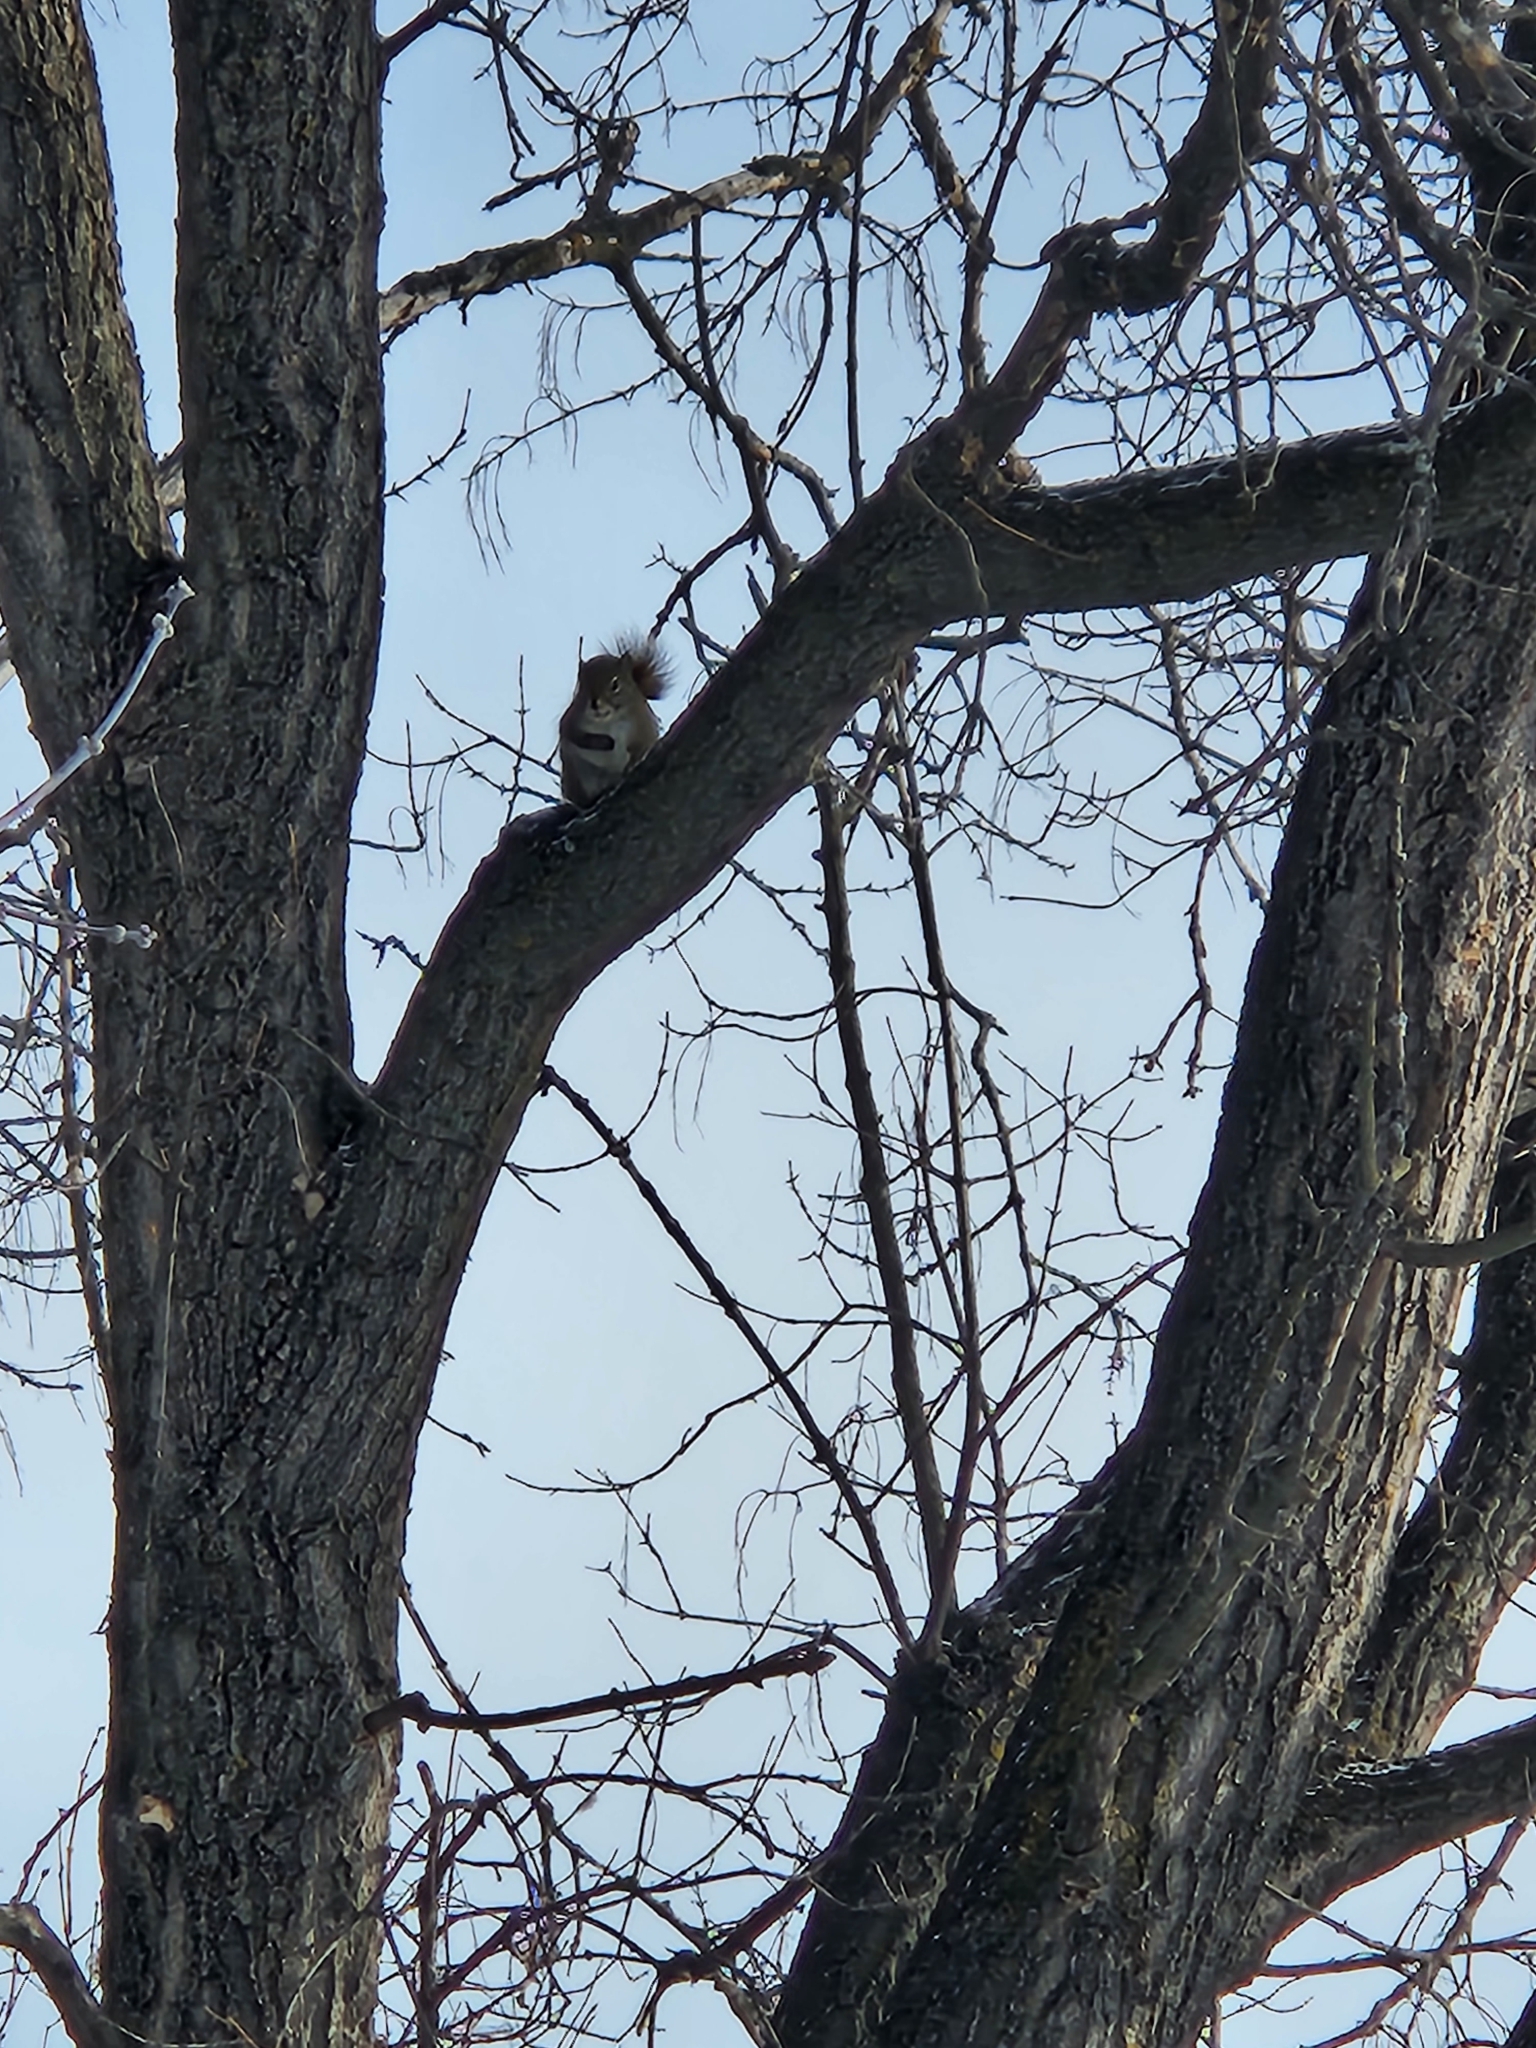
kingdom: Animalia
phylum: Chordata
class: Mammalia
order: Rodentia
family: Sciuridae
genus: Tamiasciurus
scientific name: Tamiasciurus hudsonicus
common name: Red squirrel
